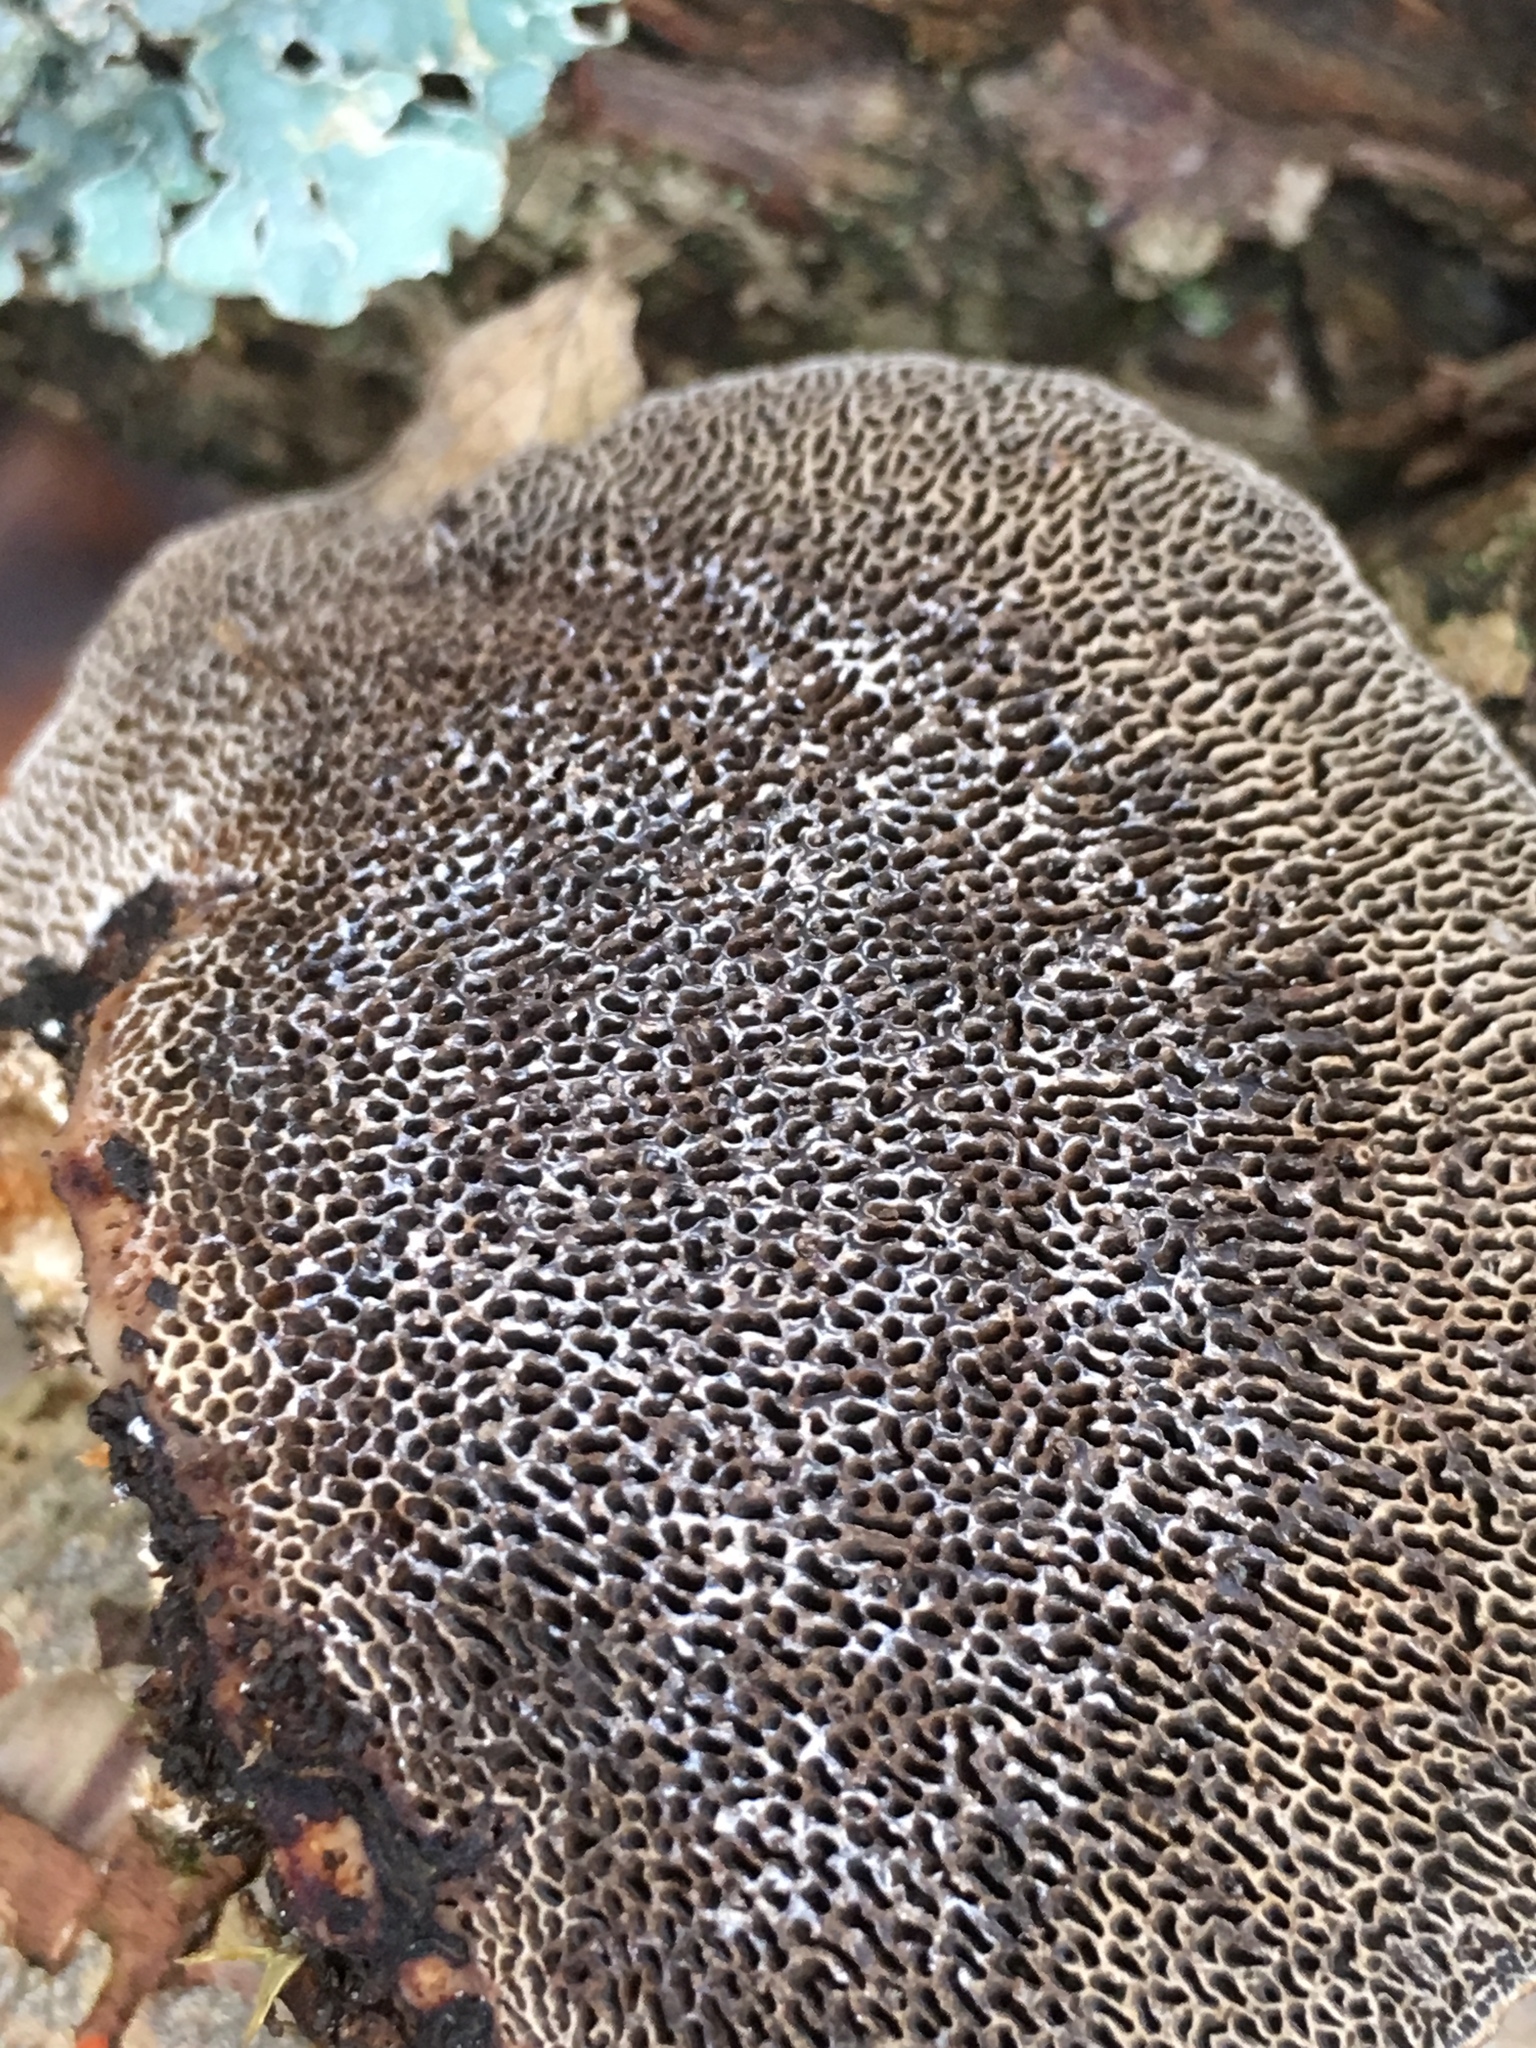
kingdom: Fungi
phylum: Basidiomycota
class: Agaricomycetes
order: Polyporales
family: Polyporaceae
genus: Daedaleopsis
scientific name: Daedaleopsis confragosa
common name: Blushing bracket
